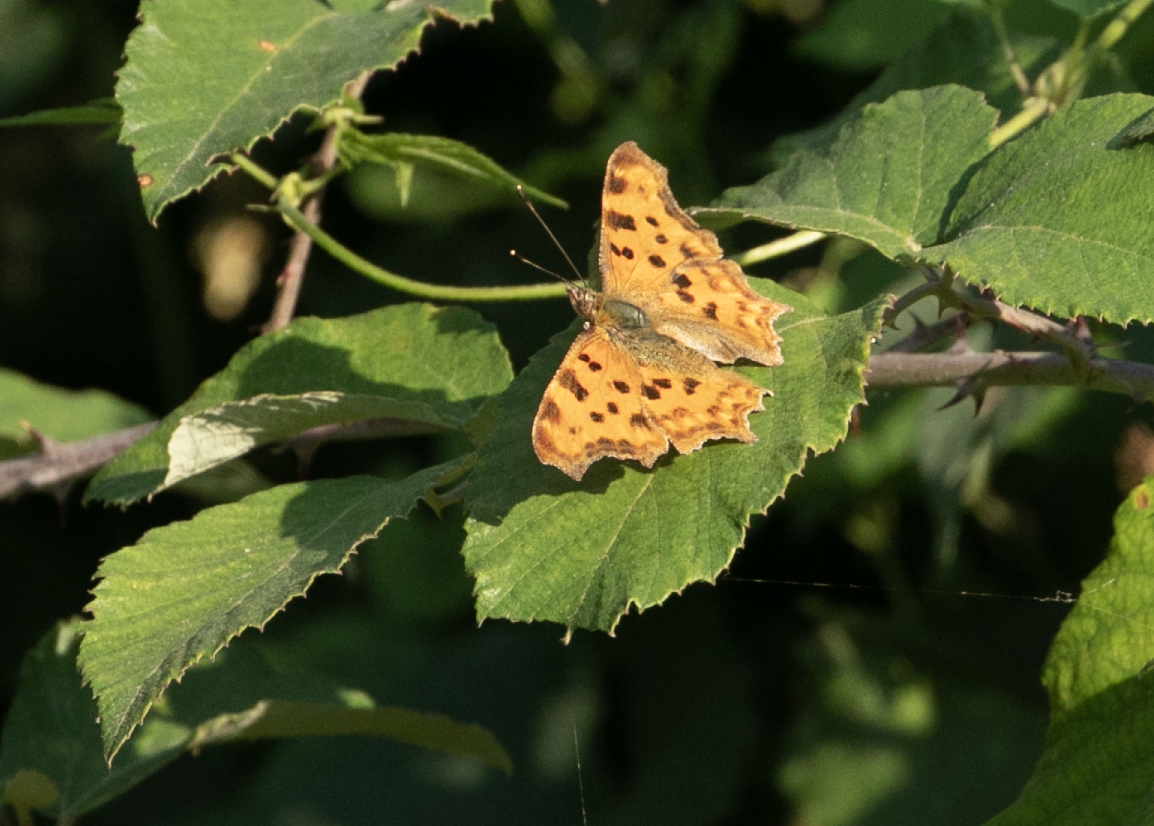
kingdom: Animalia
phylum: Arthropoda
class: Insecta
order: Lepidoptera
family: Nymphalidae
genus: Polygonia
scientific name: Polygonia c-album
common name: Comma
